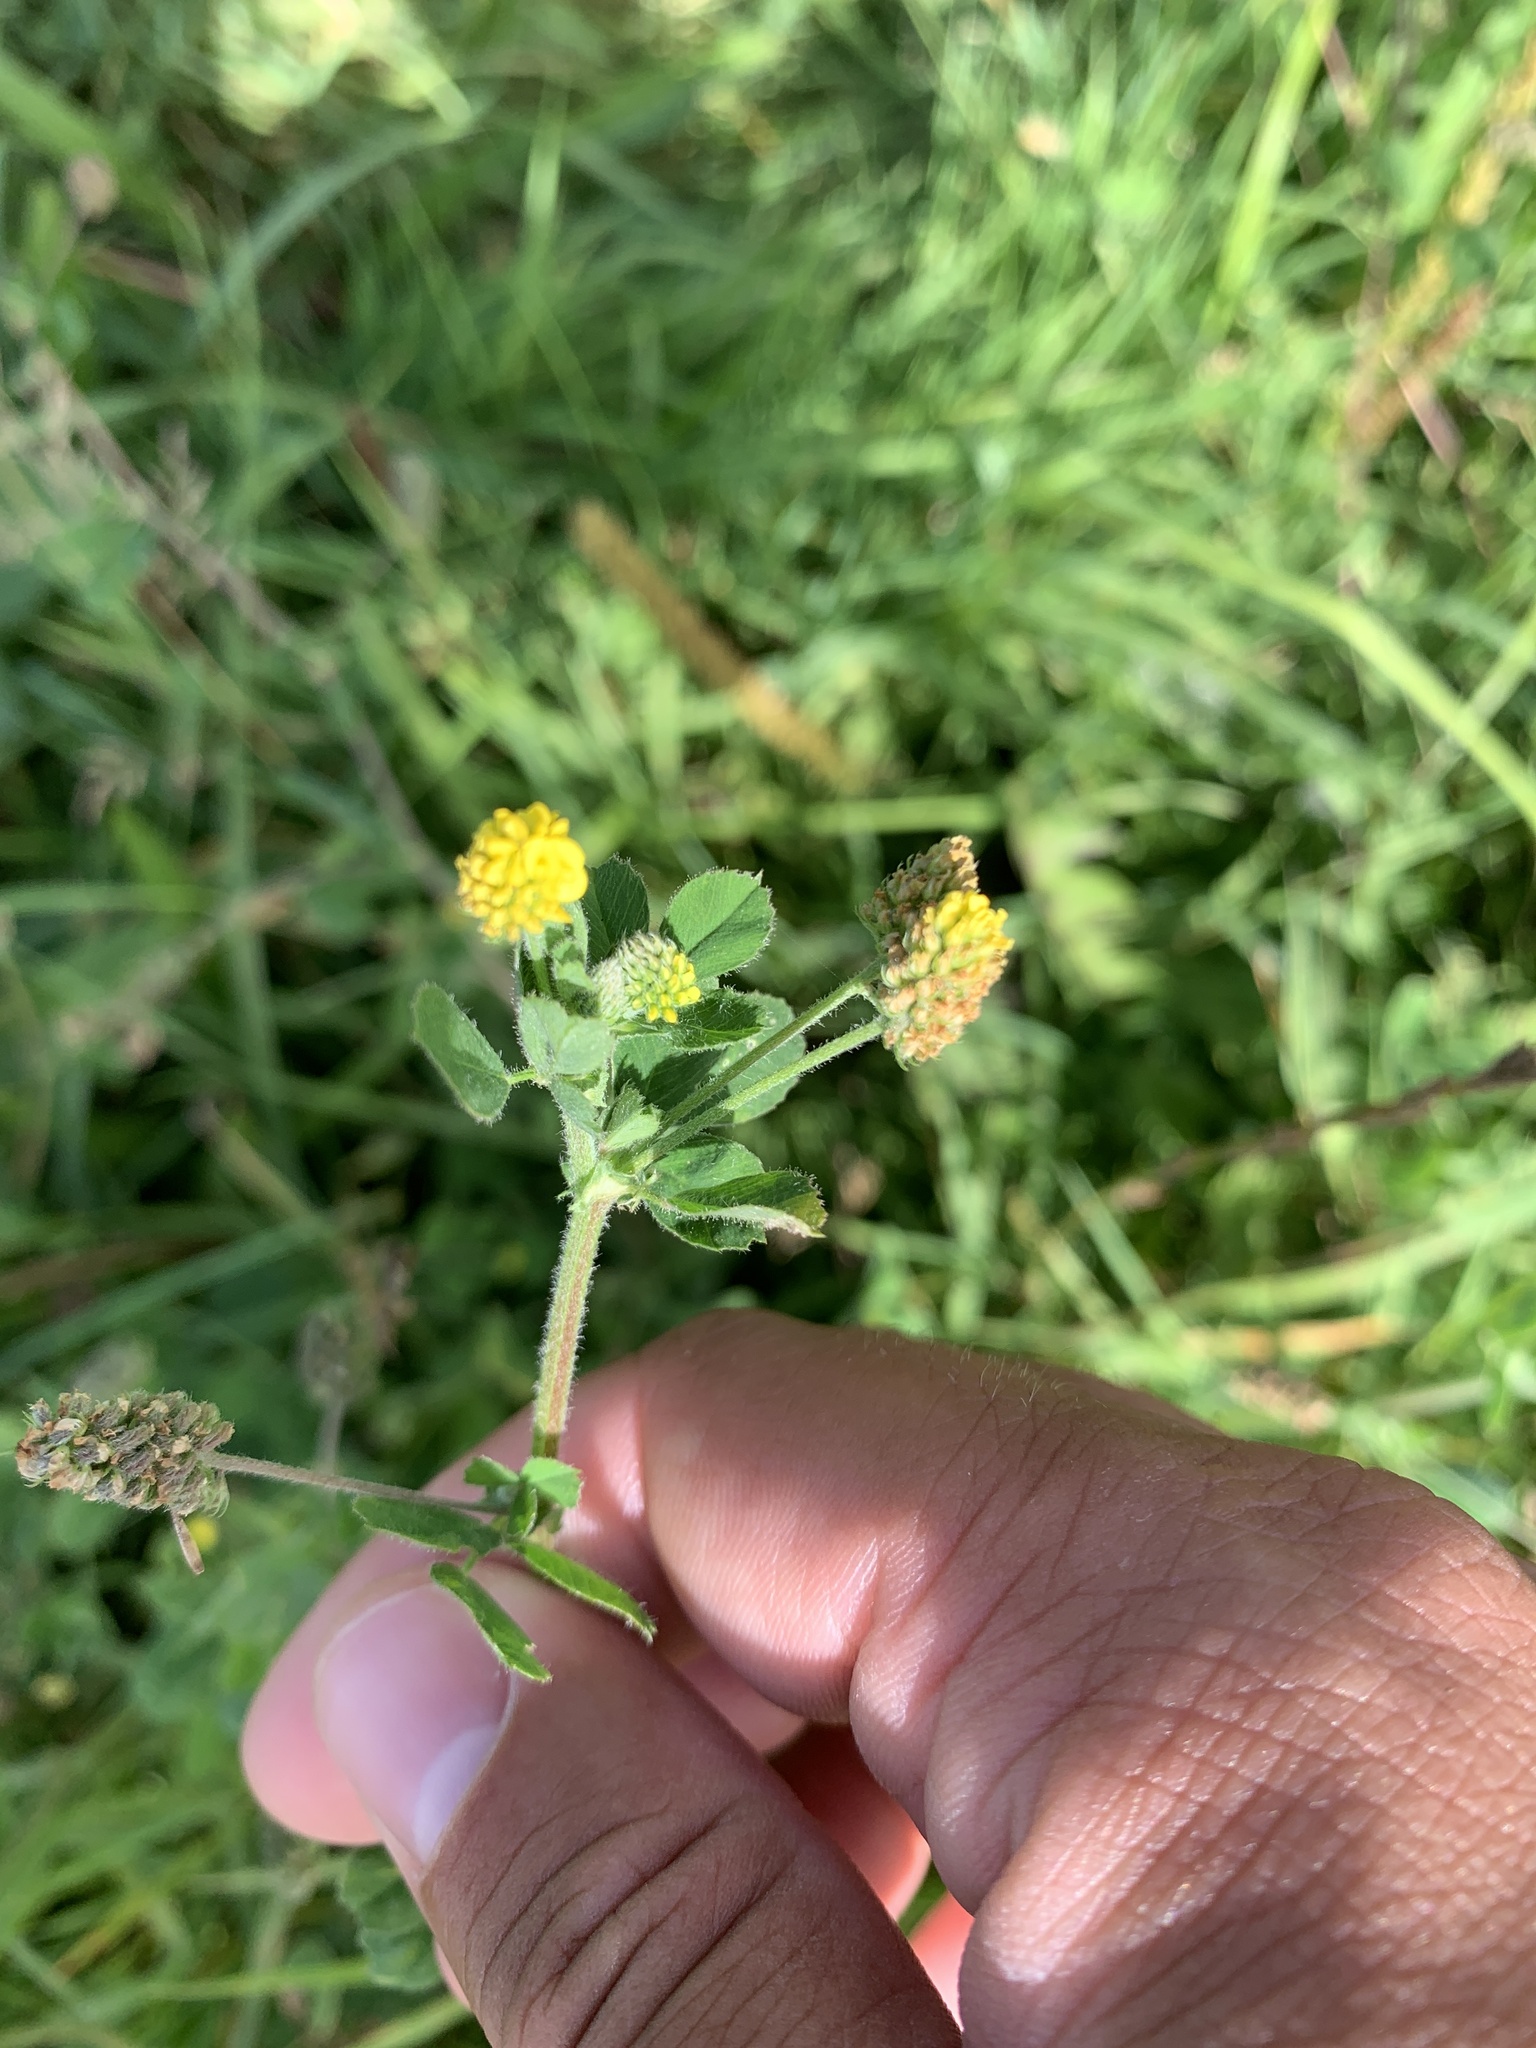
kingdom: Plantae
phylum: Tracheophyta
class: Magnoliopsida
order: Fabales
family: Fabaceae
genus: Medicago
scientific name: Medicago lupulina
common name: Black medick
